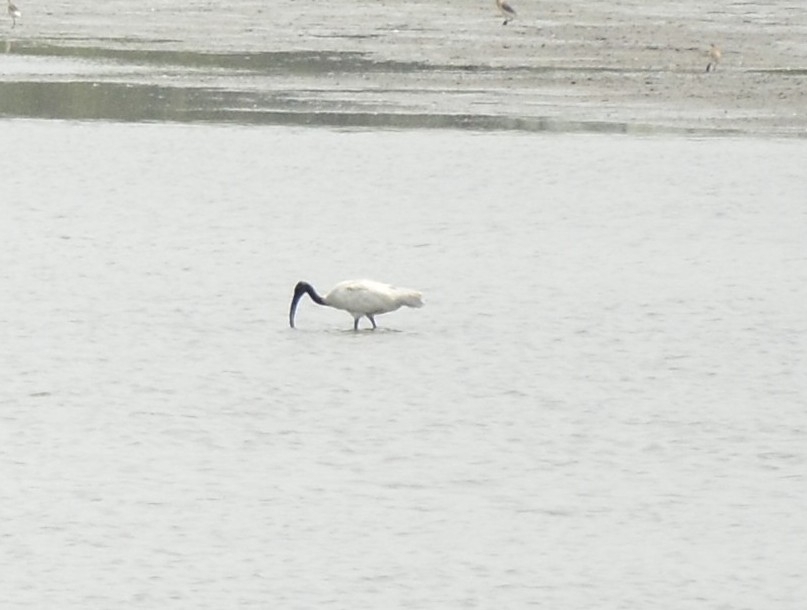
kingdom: Animalia
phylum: Chordata
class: Aves
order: Pelecaniformes
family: Threskiornithidae
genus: Threskiornis
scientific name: Threskiornis melanocephalus
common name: Black-headed ibis
